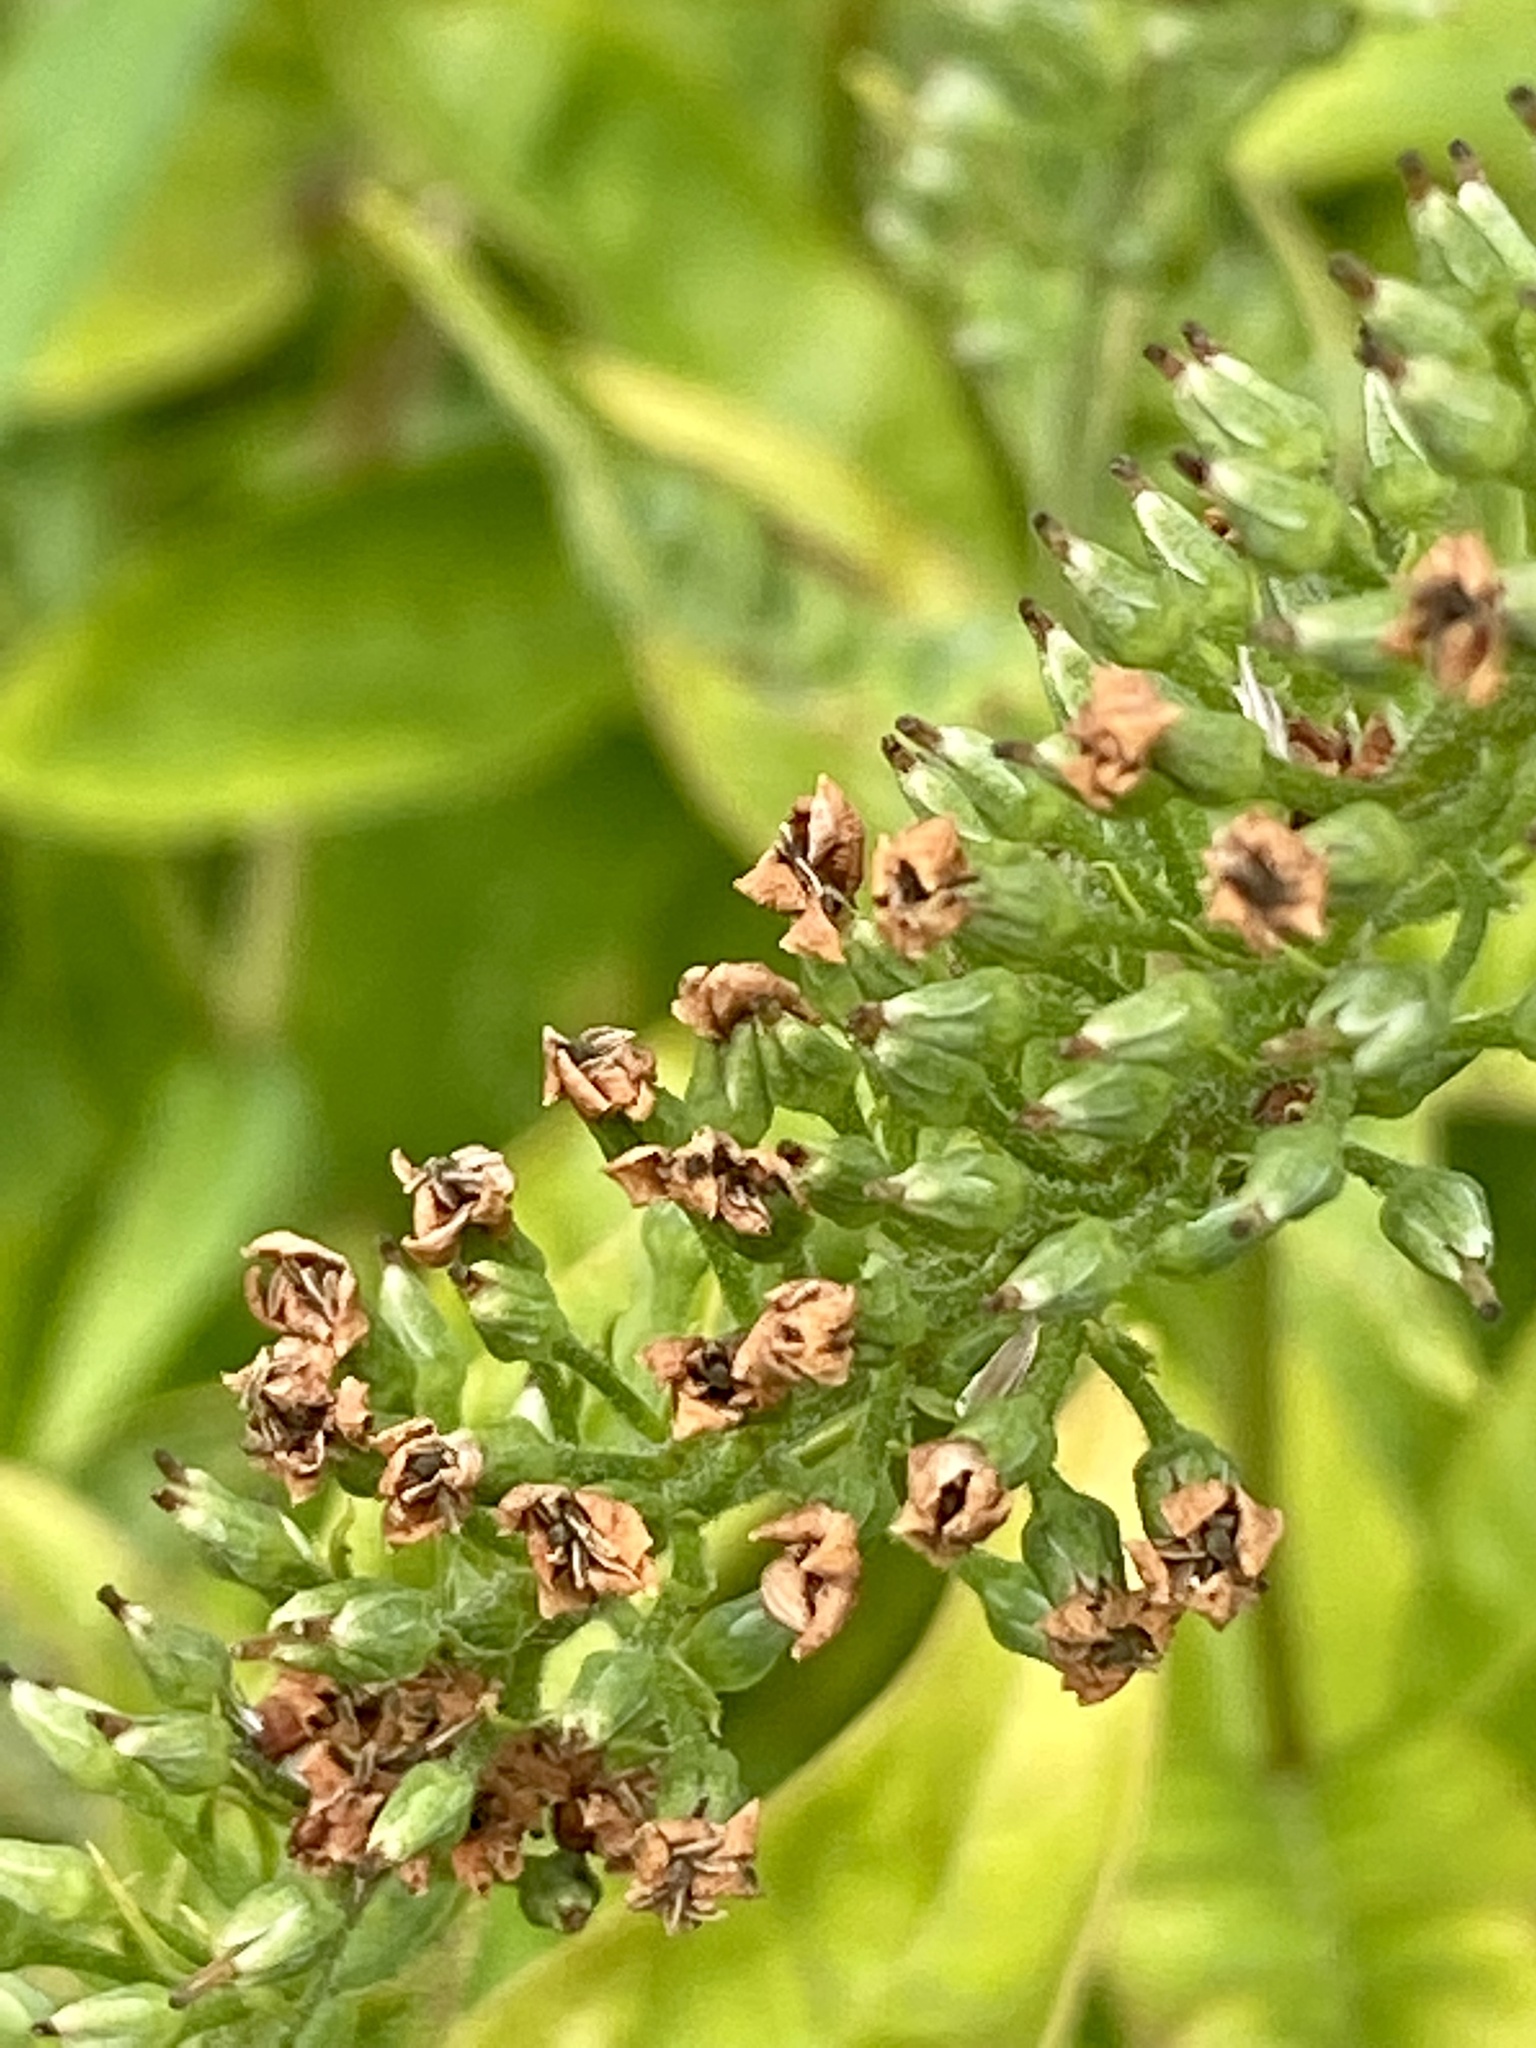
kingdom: Plantae
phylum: Tracheophyta
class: Magnoliopsida
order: Ericales
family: Primulaceae
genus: Lysimachia
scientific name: Lysimachia clethroides
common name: Gooseneck loosestrife
